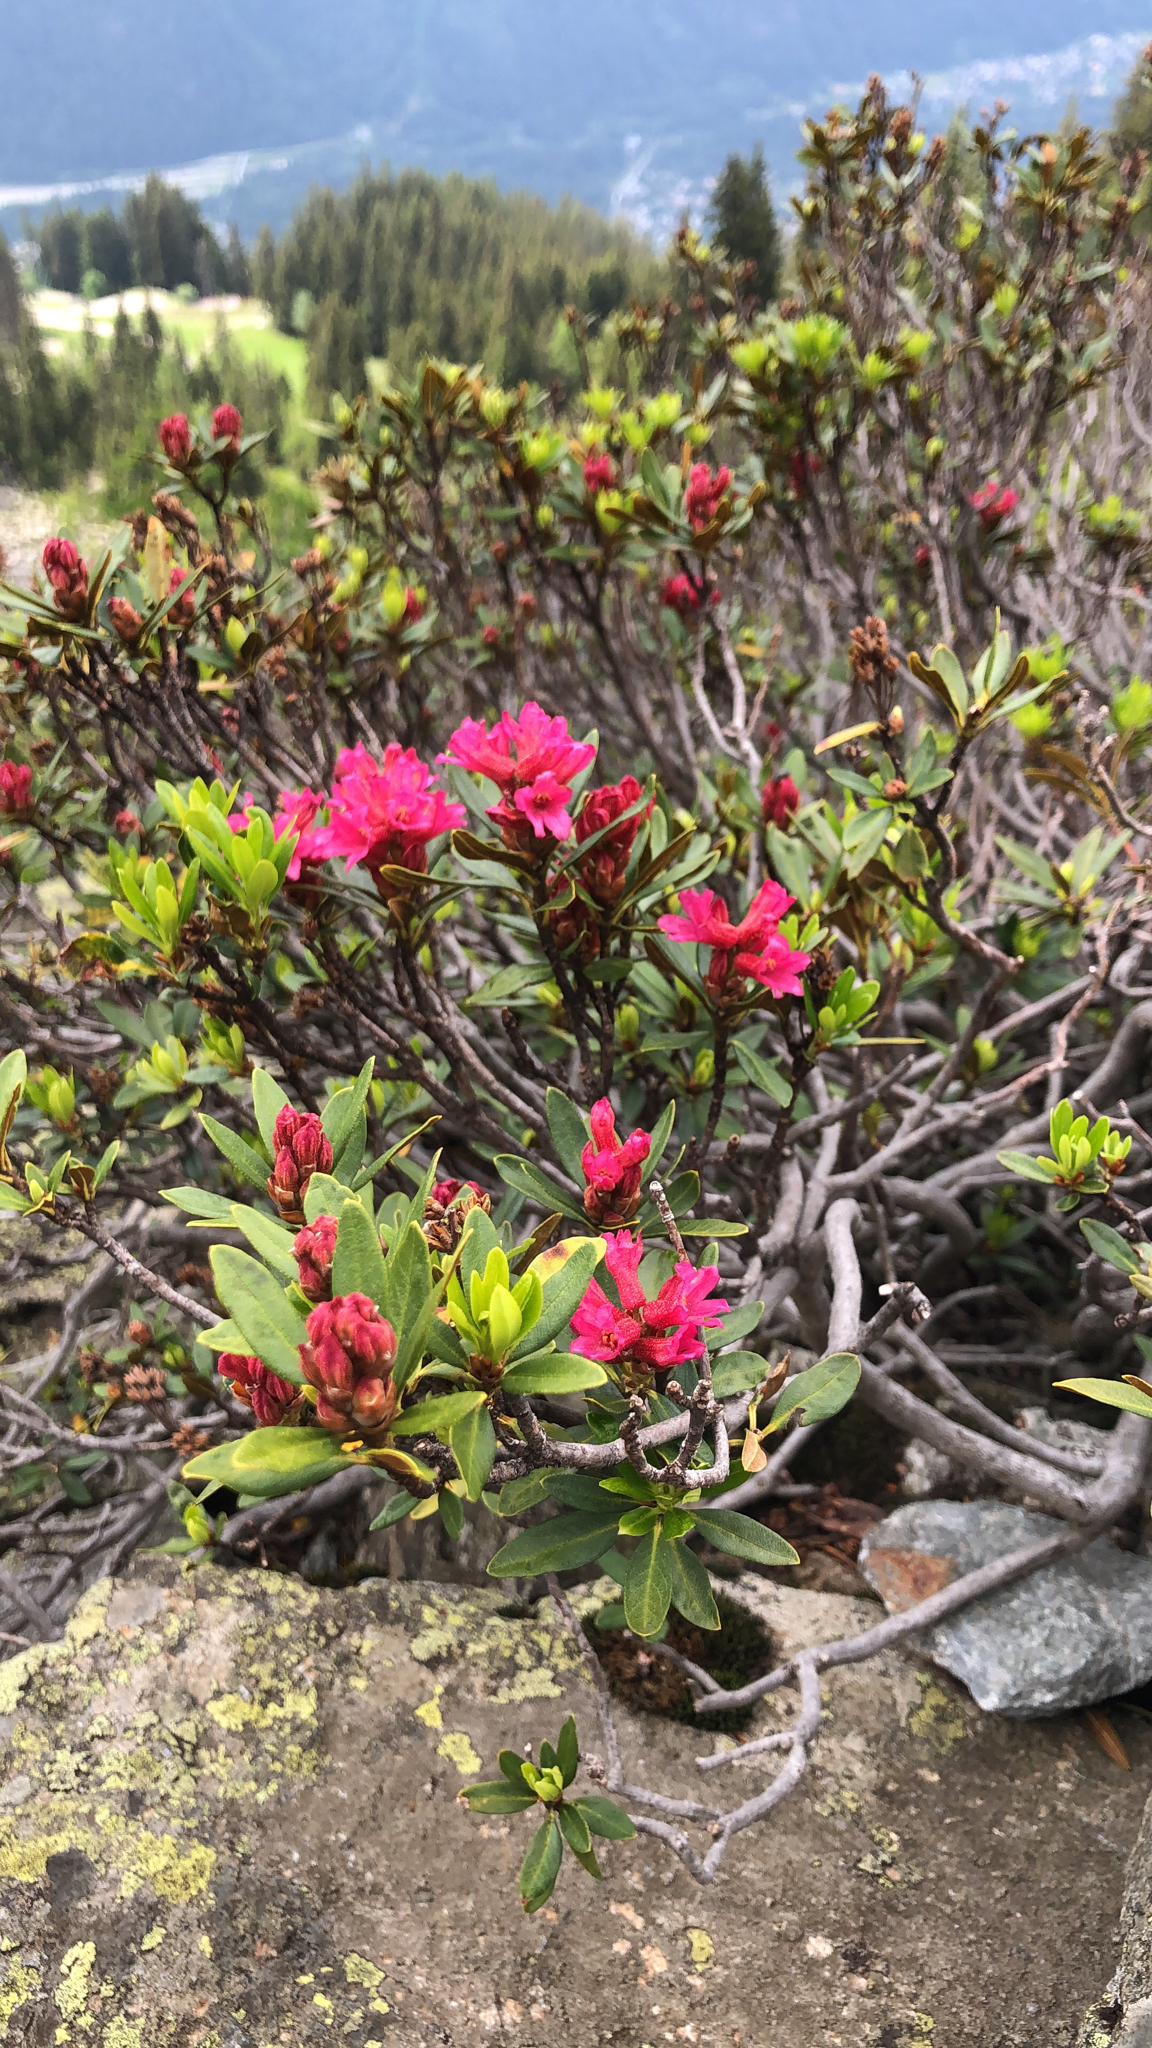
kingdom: Plantae
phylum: Tracheophyta
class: Magnoliopsida
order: Ericales
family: Ericaceae
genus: Rhododendron
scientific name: Rhododendron ferrugineum
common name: Alpenrose
